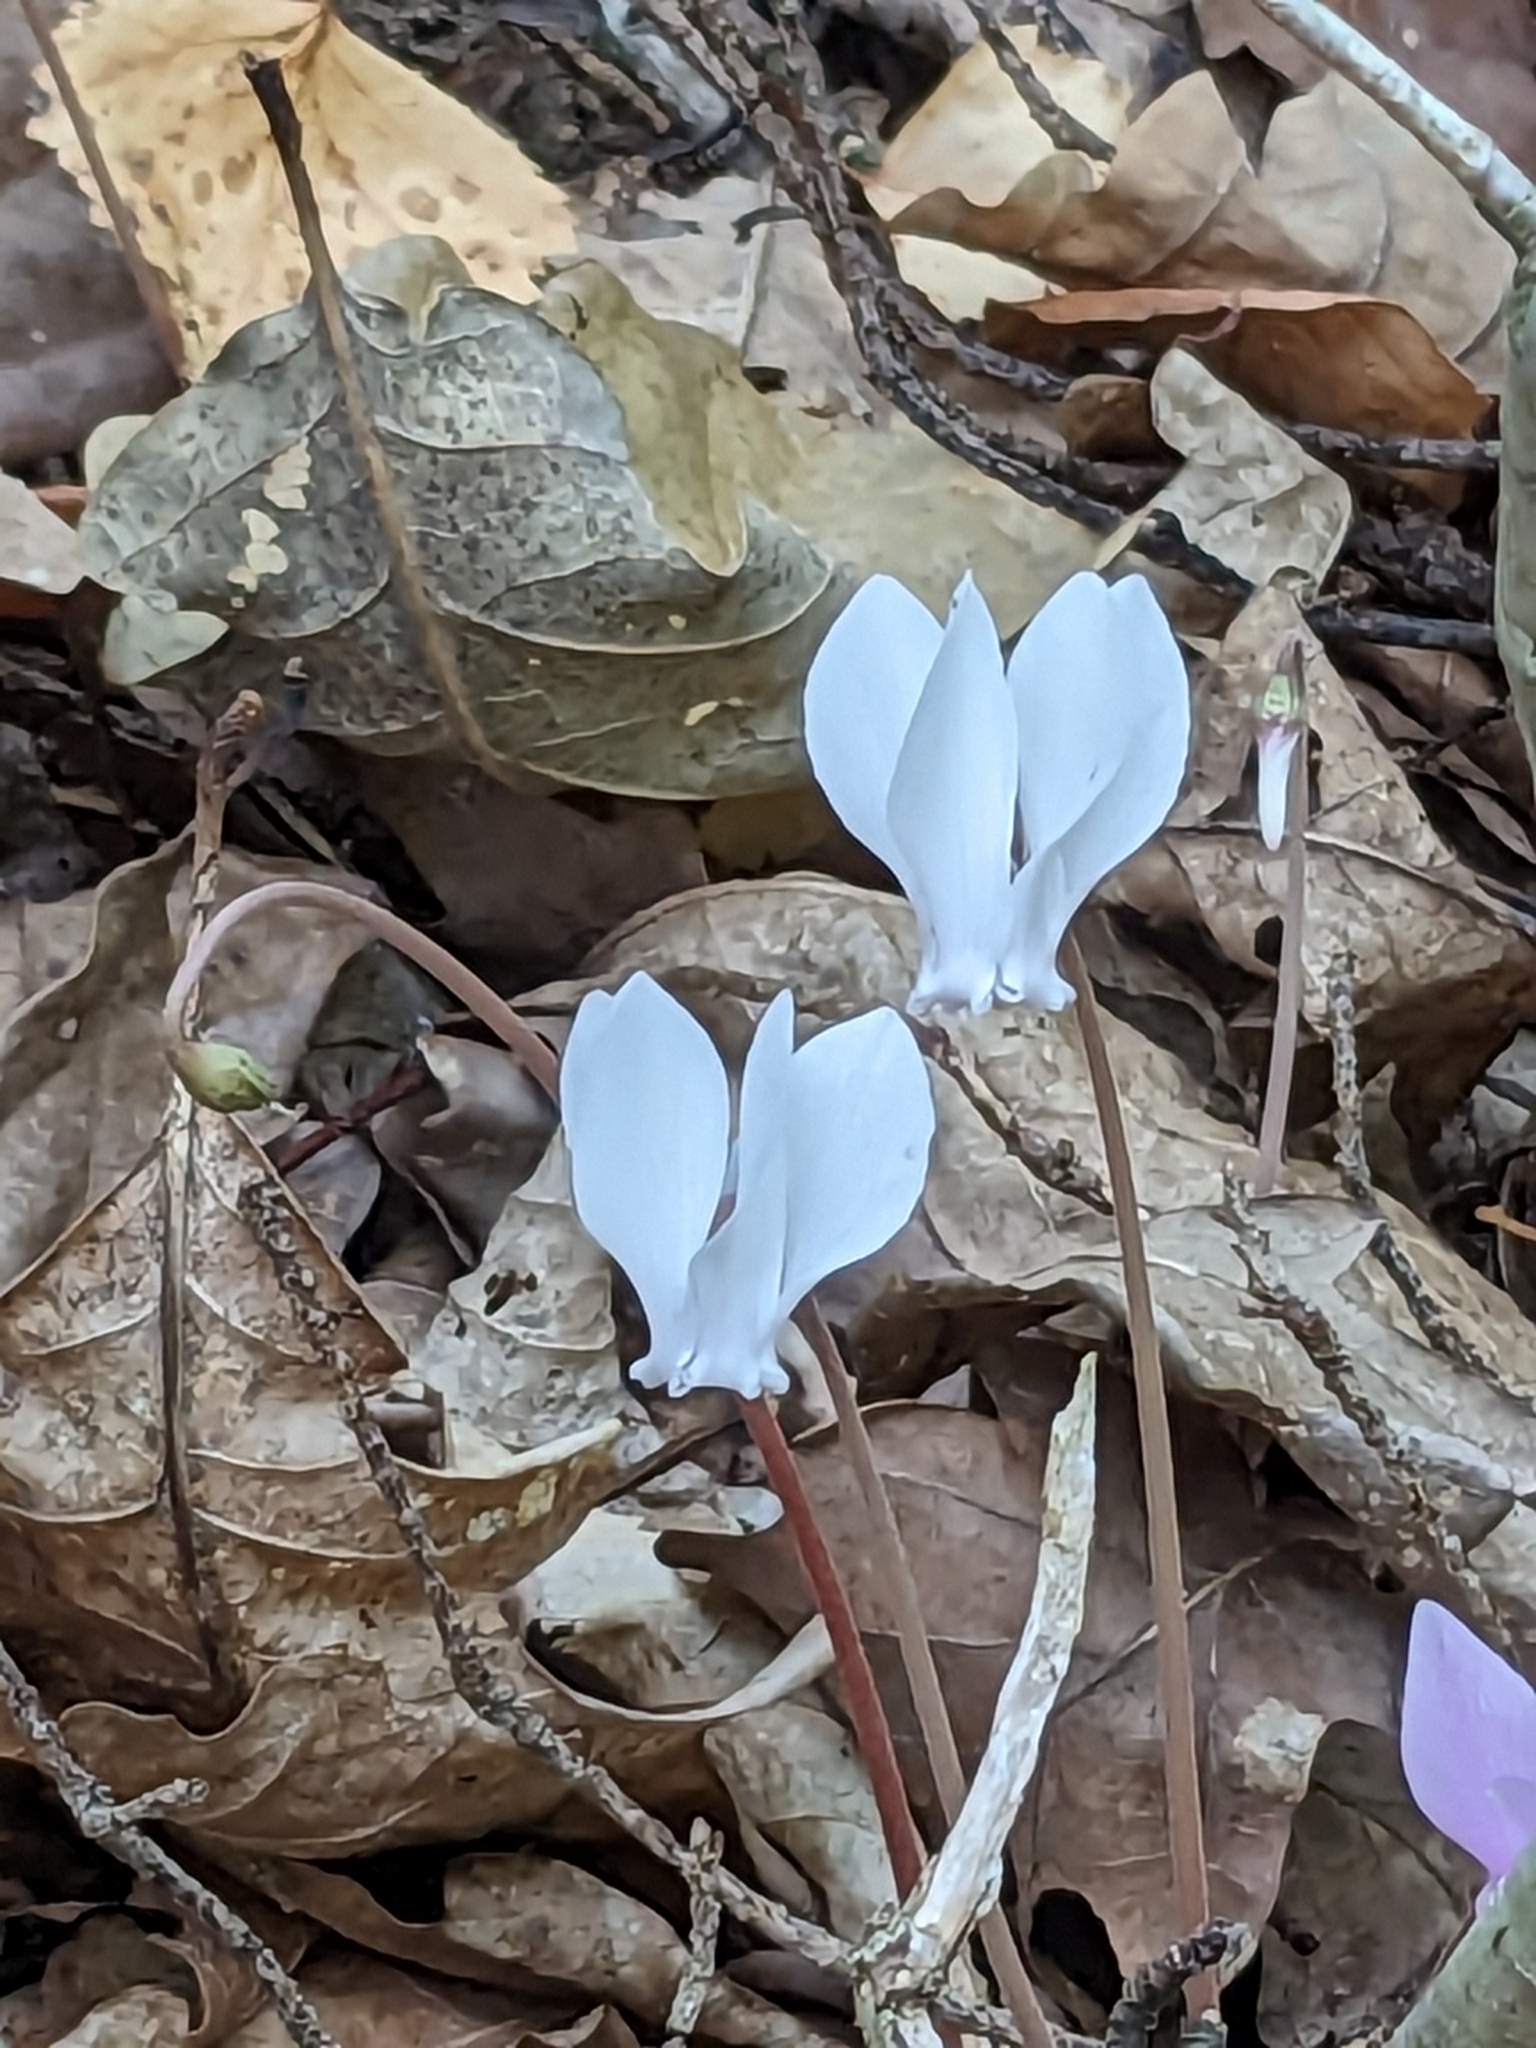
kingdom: Plantae
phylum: Tracheophyta
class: Magnoliopsida
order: Ericales
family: Primulaceae
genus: Cyclamen
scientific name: Cyclamen hederifolium
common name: Sowbread
